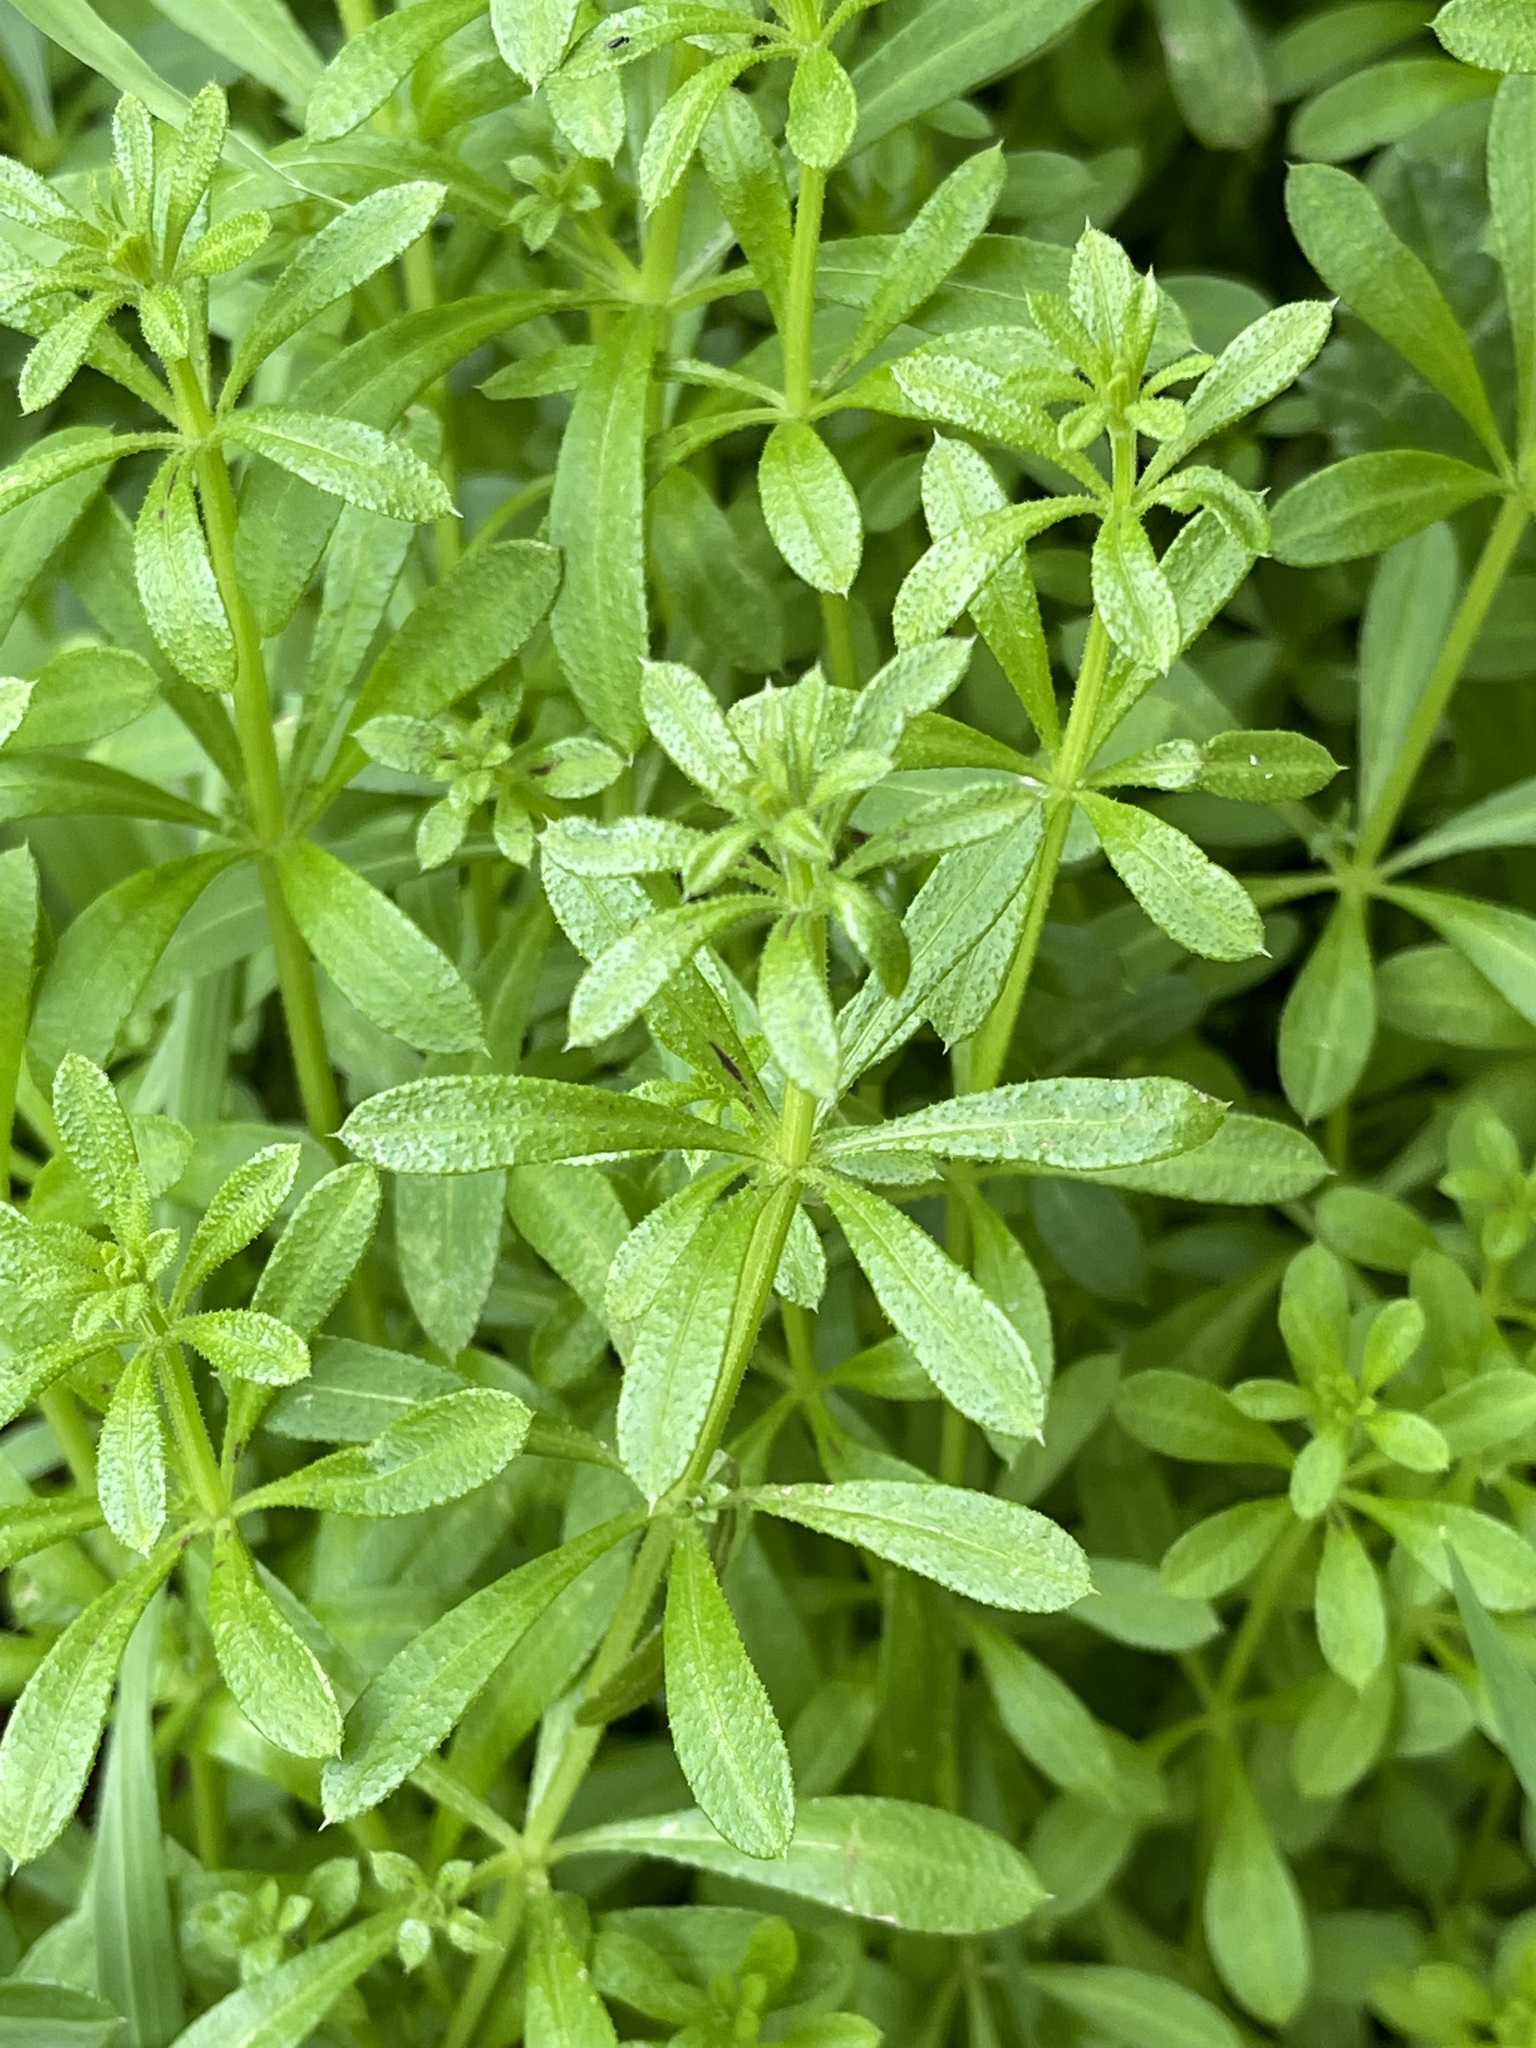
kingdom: Plantae
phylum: Tracheophyta
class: Magnoliopsida
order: Gentianales
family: Rubiaceae
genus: Galium
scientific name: Galium aparine
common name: Cleavers
